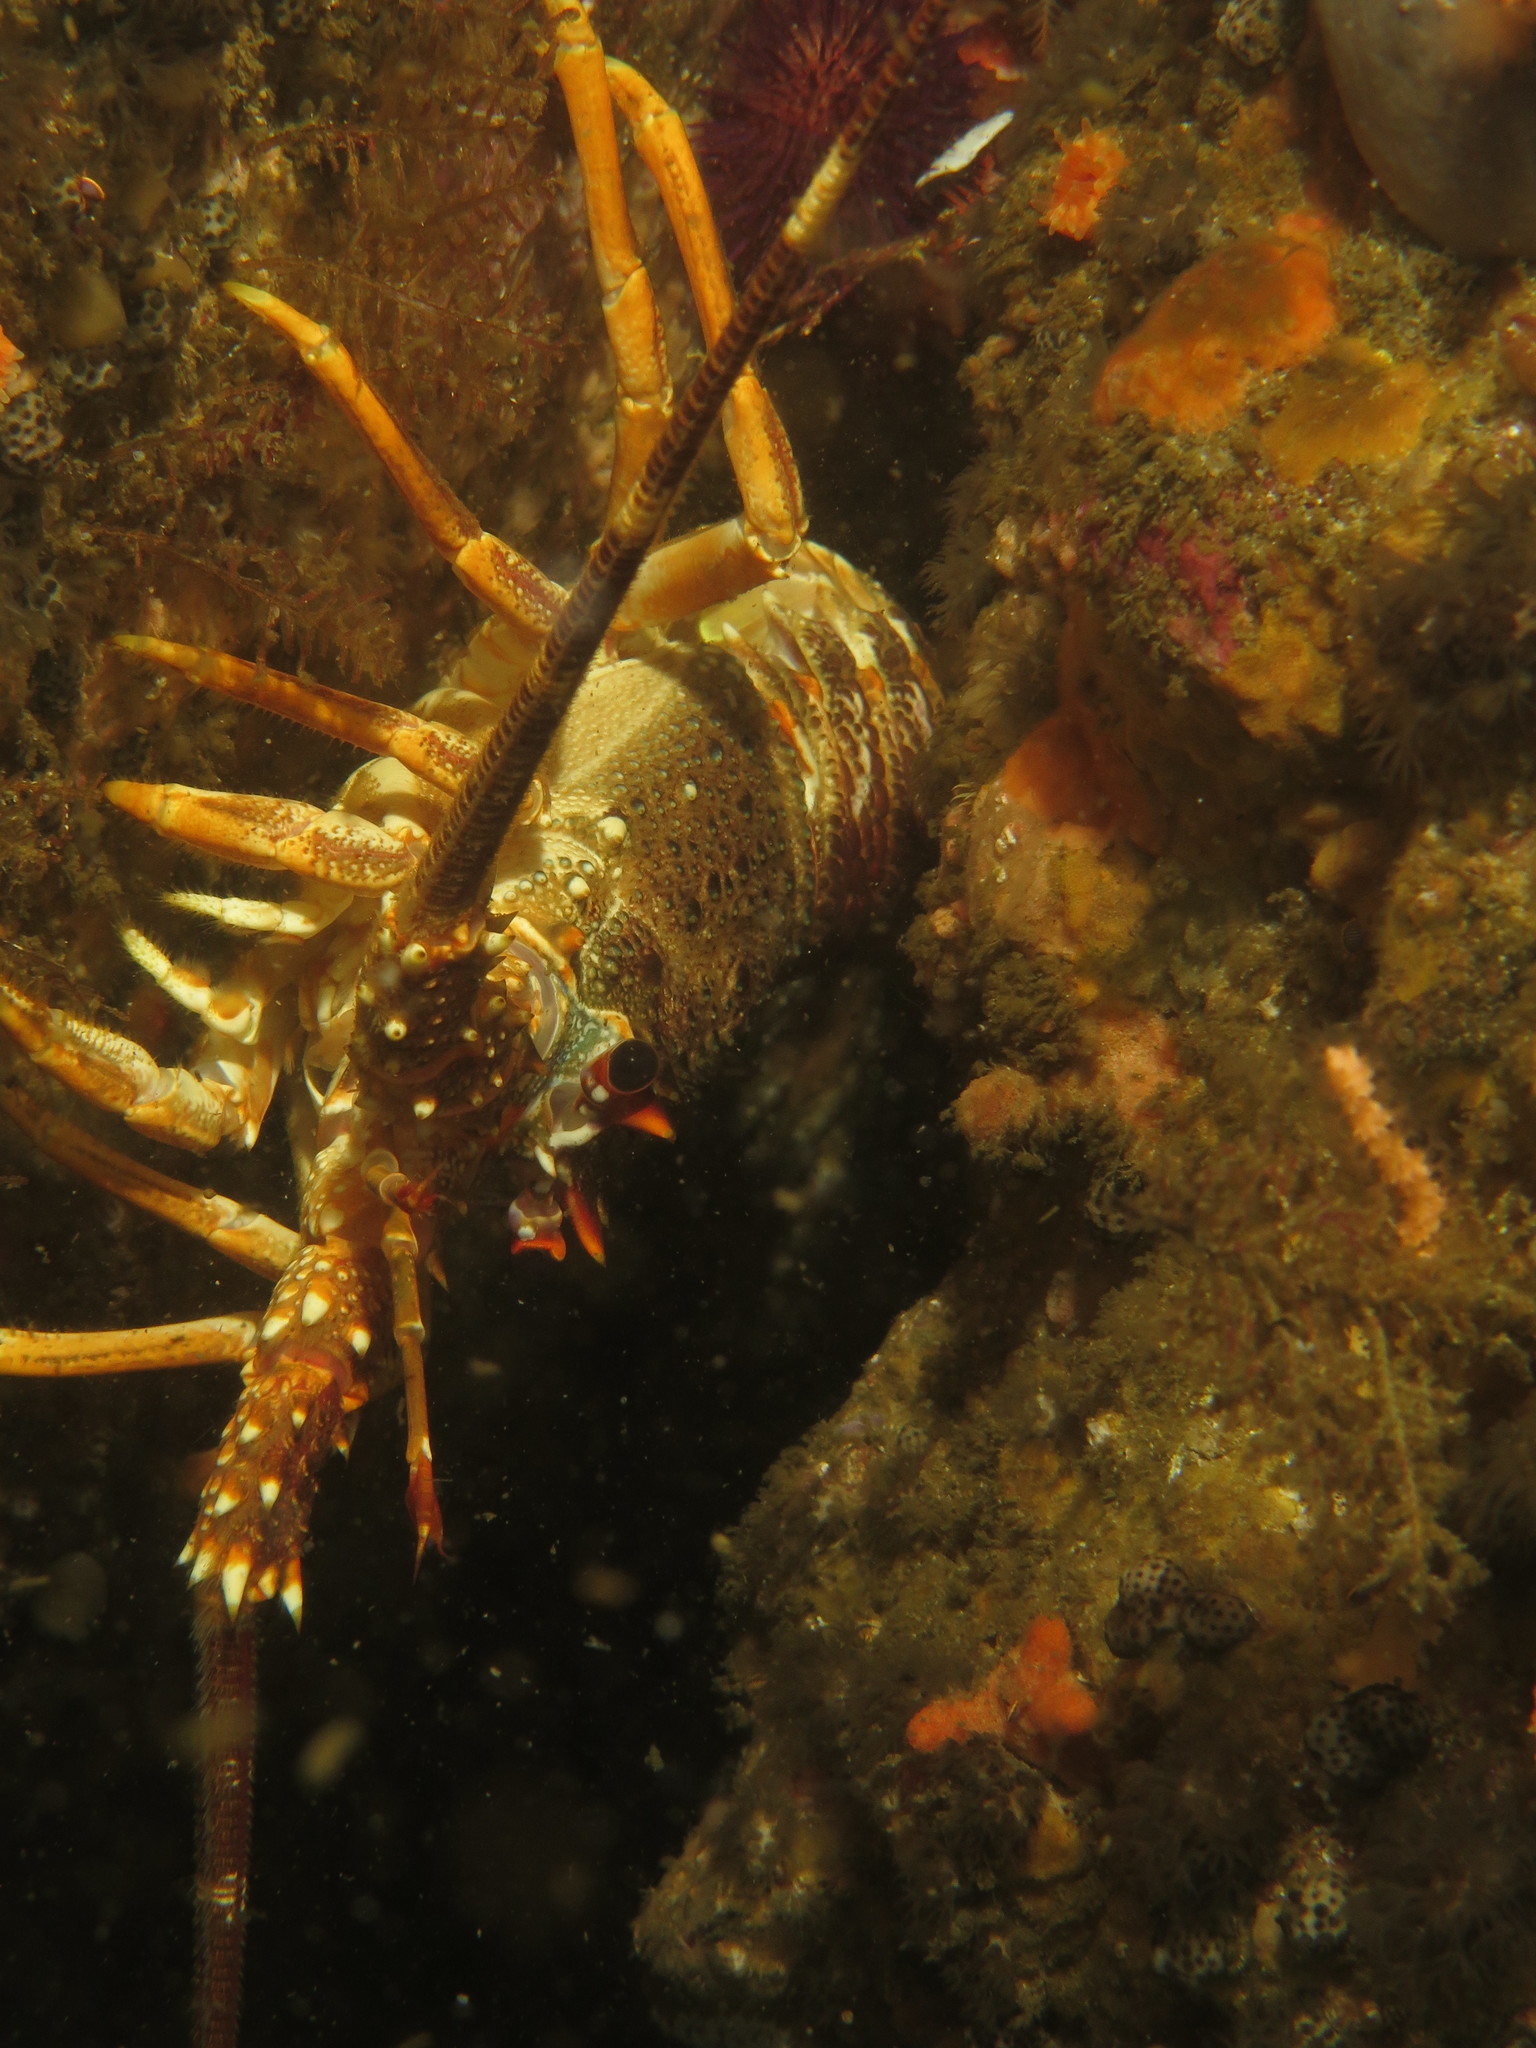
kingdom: Animalia
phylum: Arthropoda
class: Malacostraca
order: Decapoda
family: Palinuridae
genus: Jasus
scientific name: Jasus lalandii
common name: Cape rock lobster
